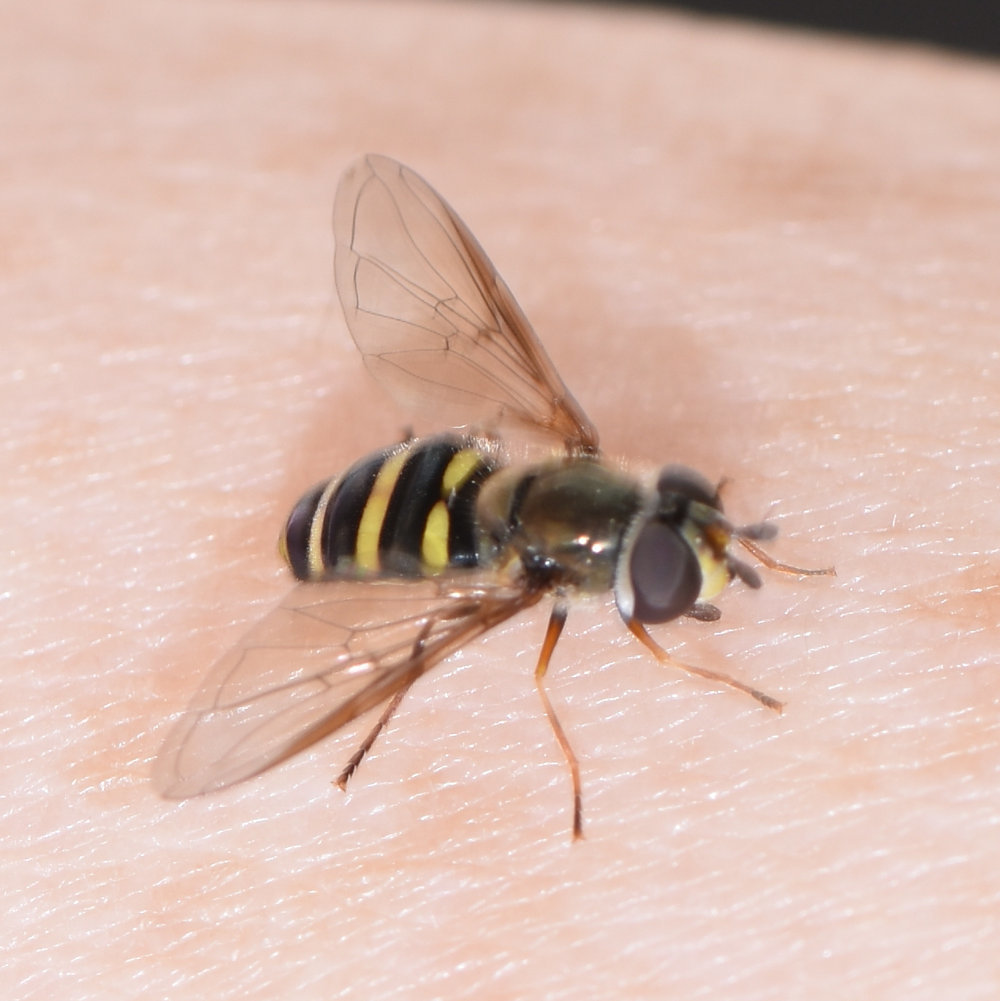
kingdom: Animalia
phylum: Arthropoda
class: Insecta
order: Diptera
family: Syrphidae
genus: Eupeodes
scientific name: Eupeodes
